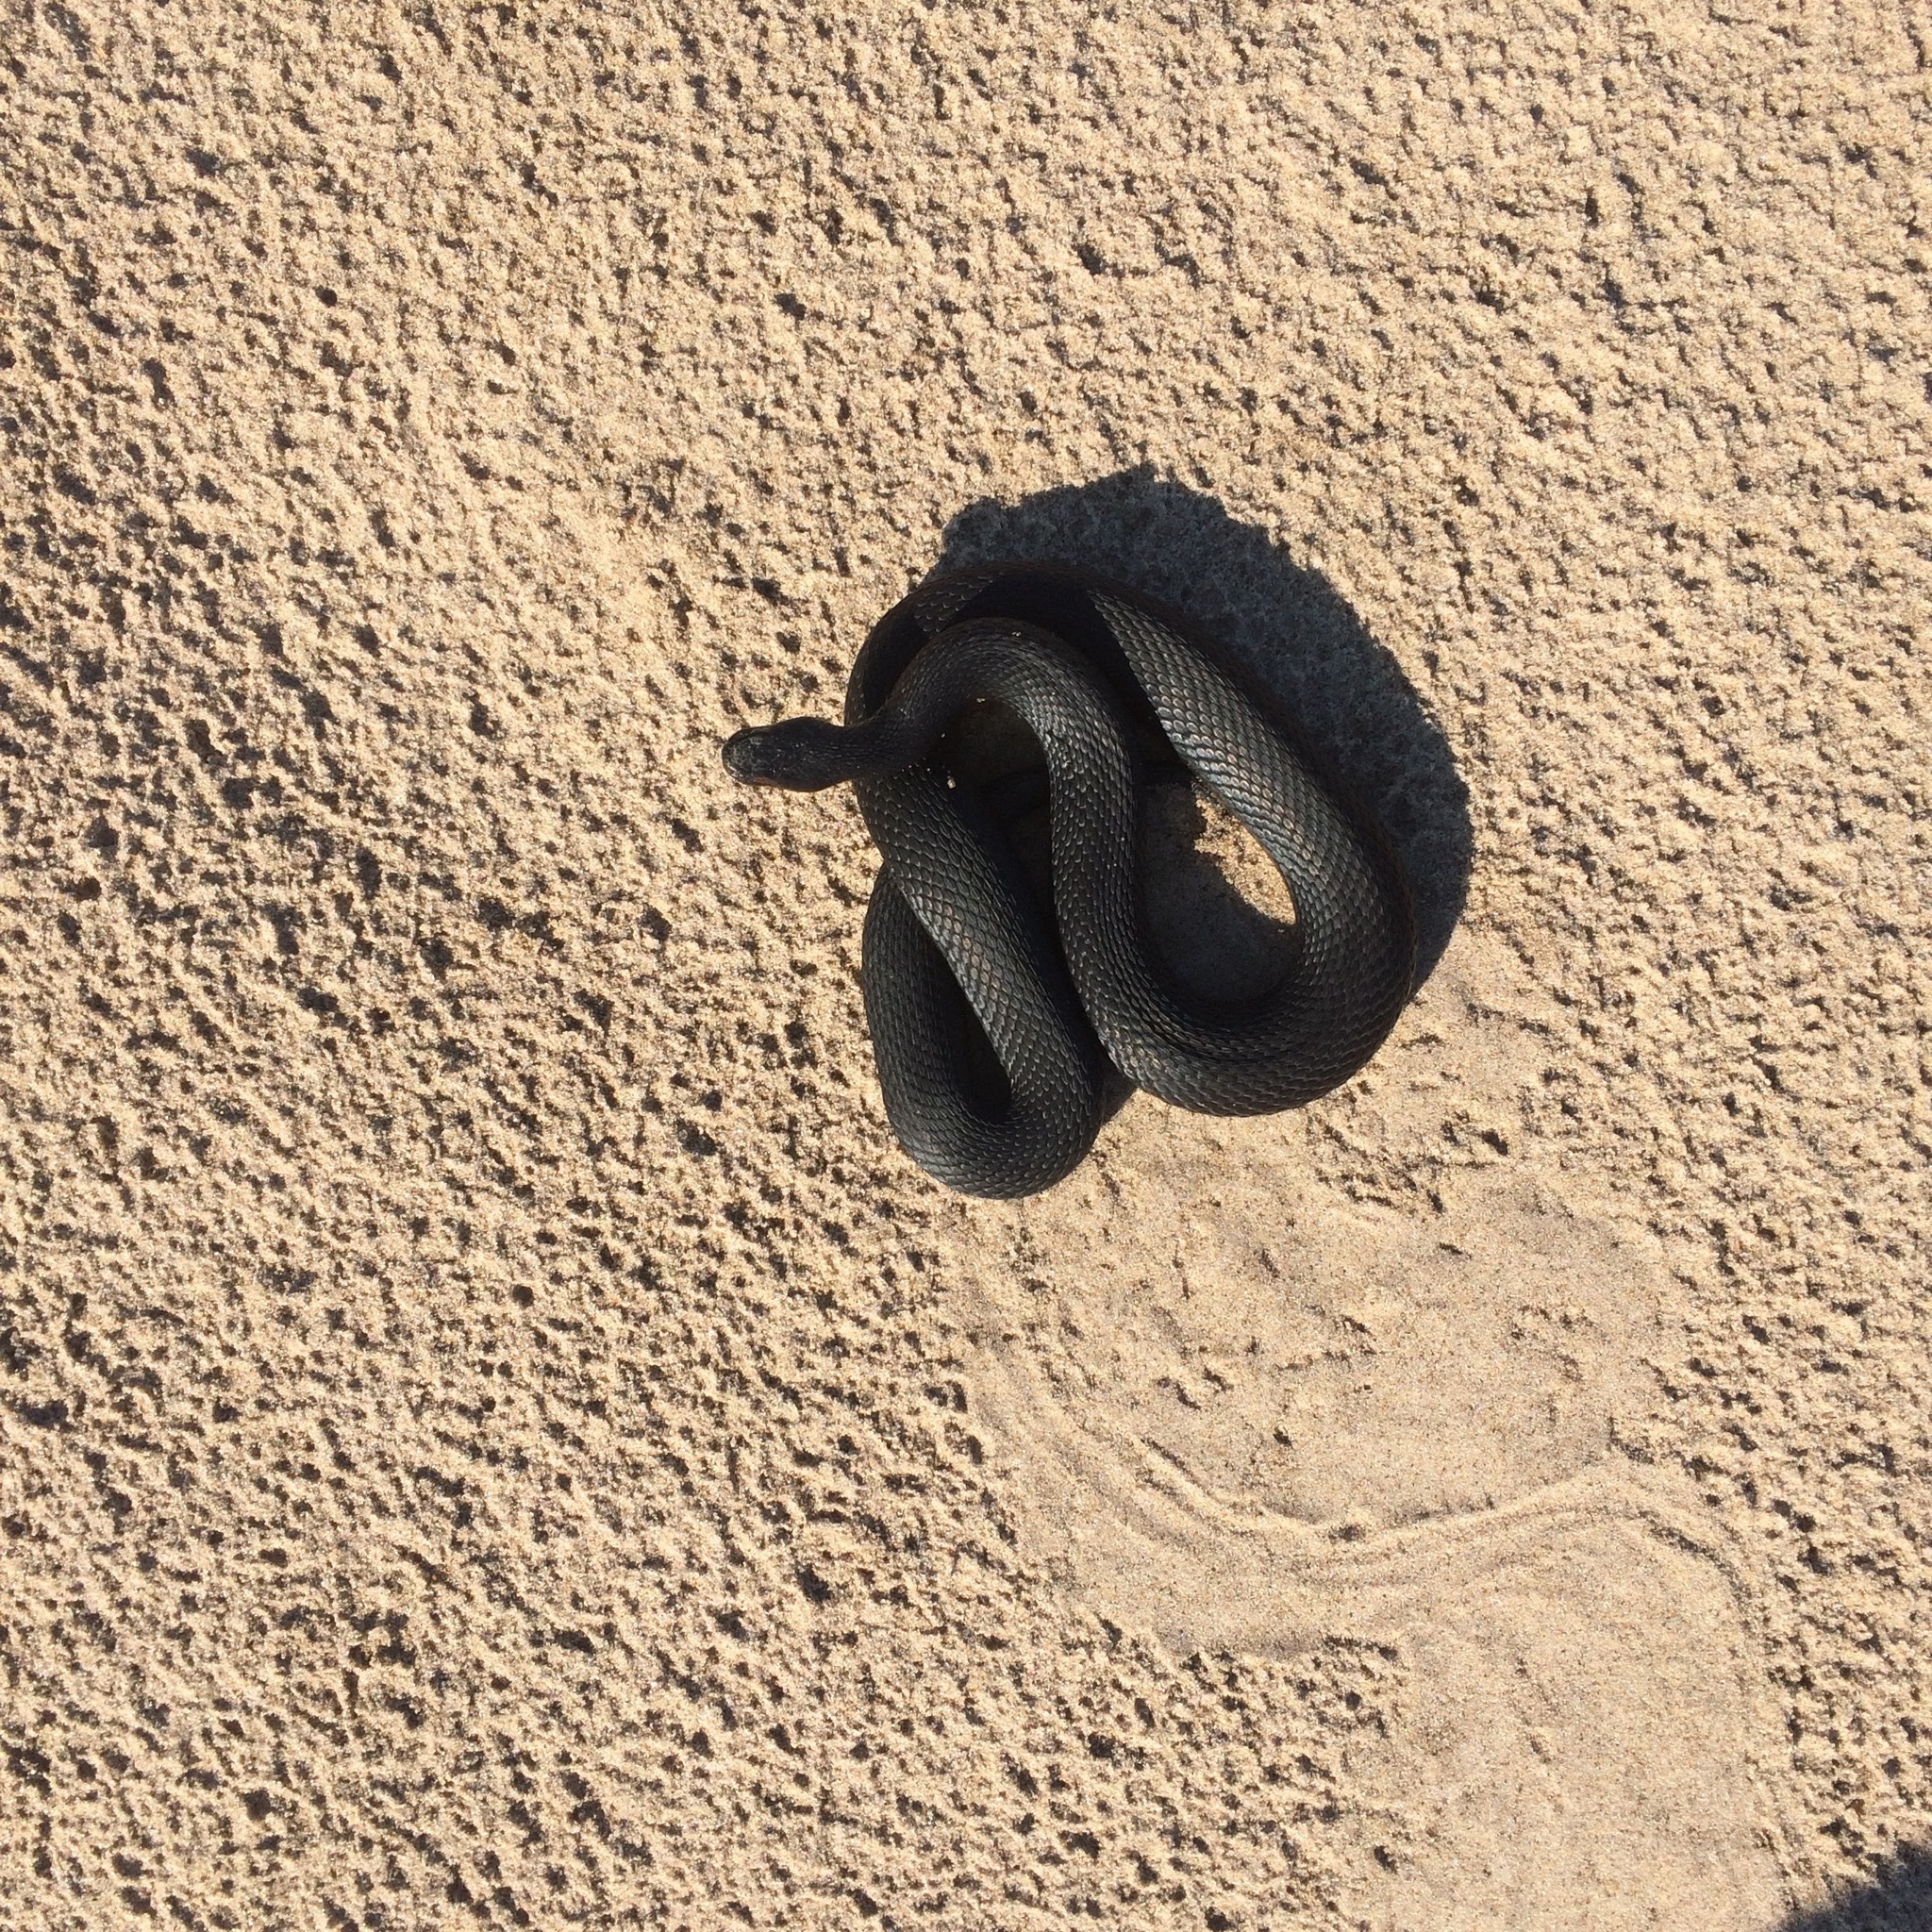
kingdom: Animalia
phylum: Chordata
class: Squamata
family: Viperidae
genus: Vipera
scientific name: Vipera berus
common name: Adder
